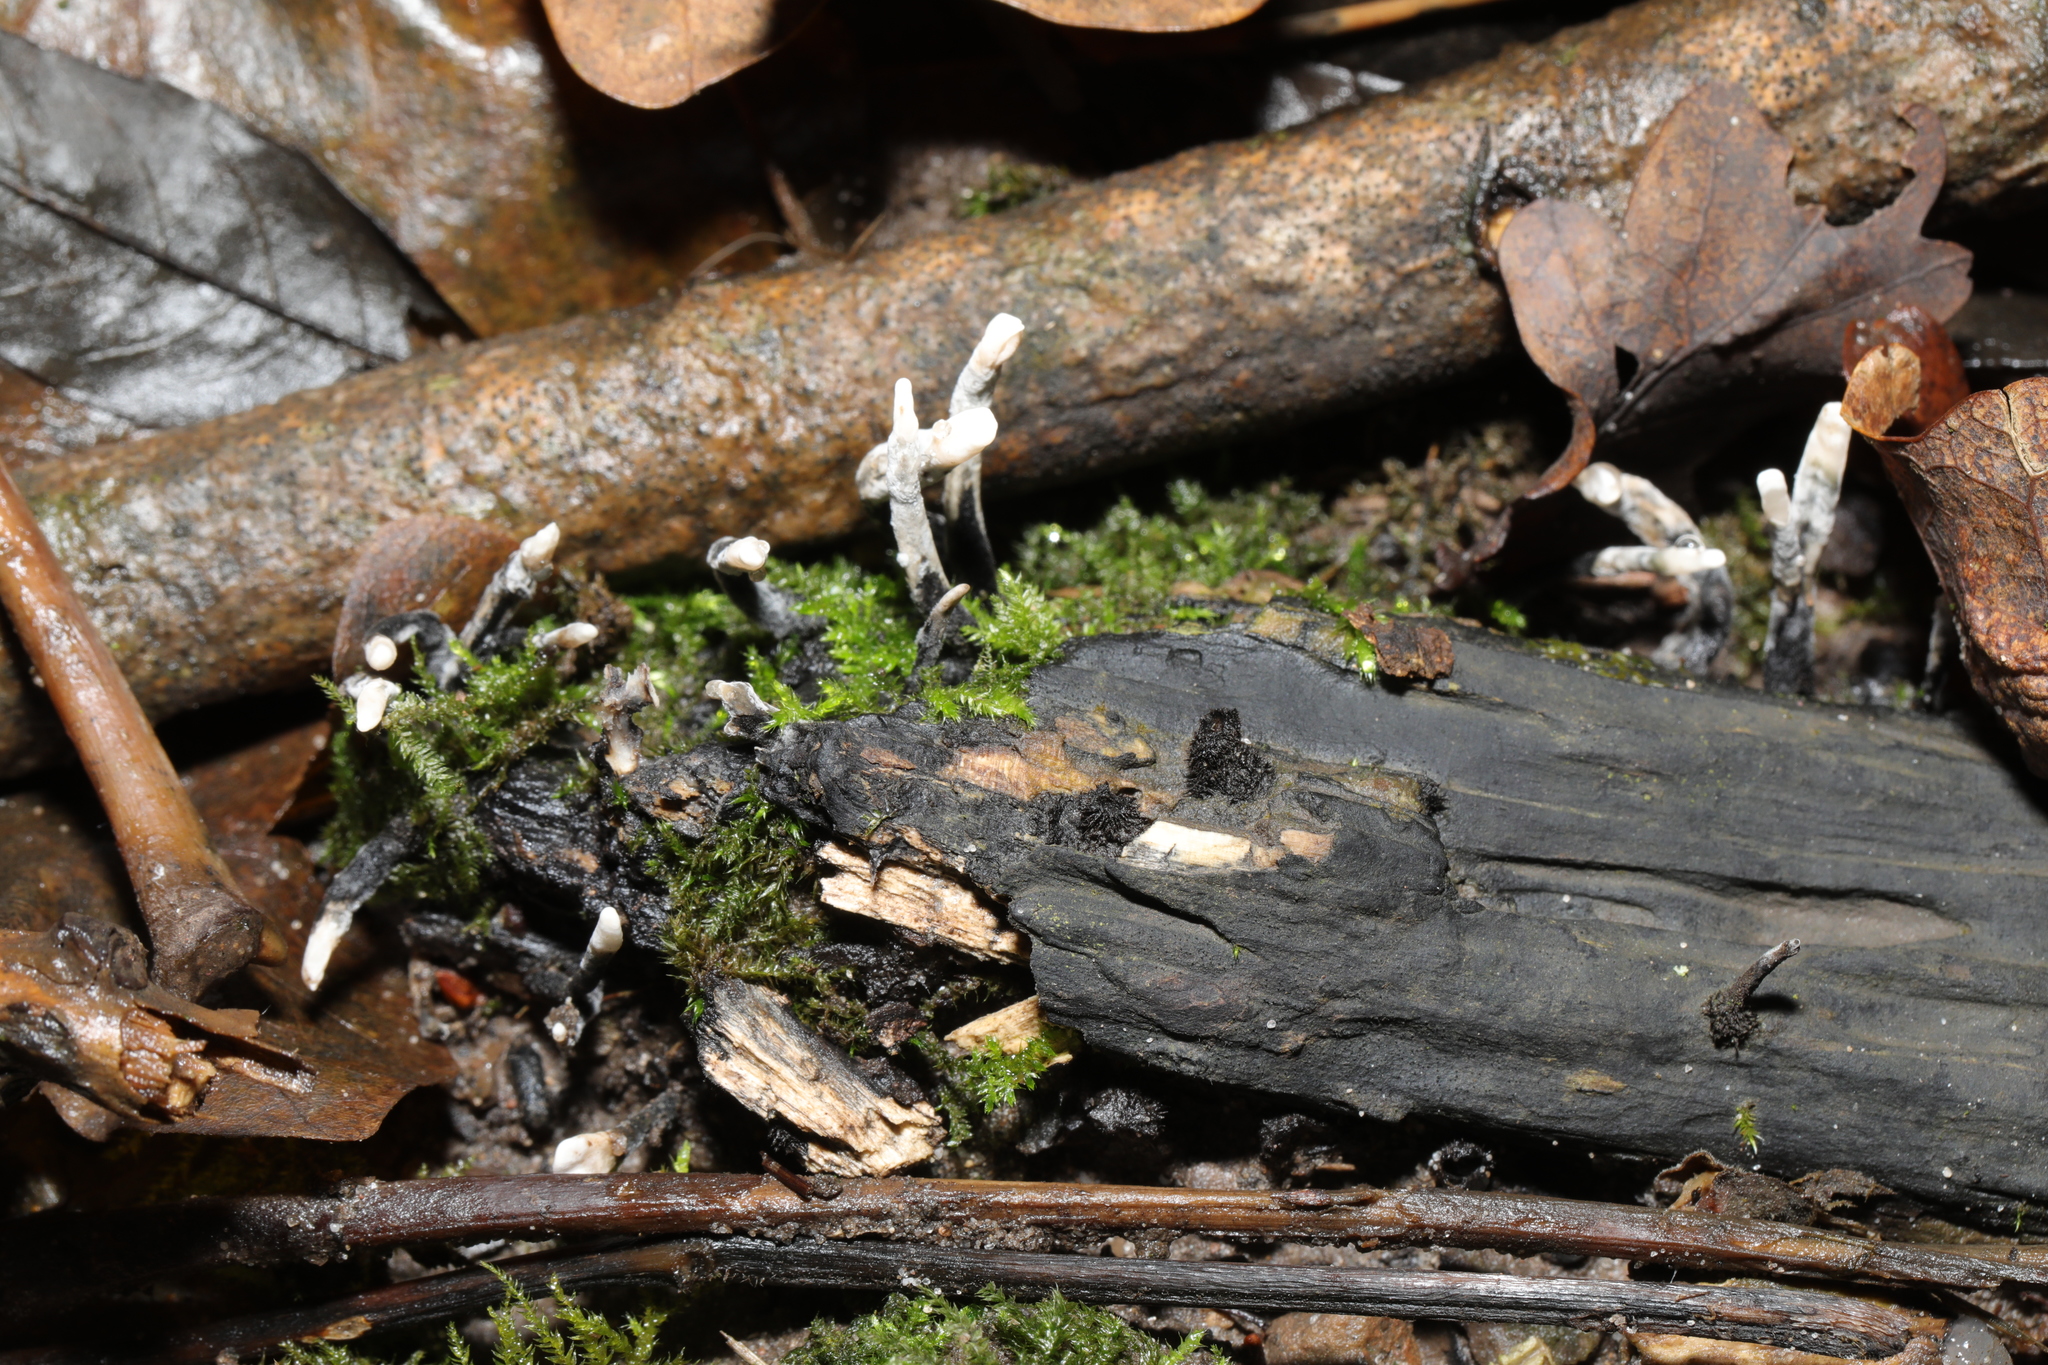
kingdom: Fungi
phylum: Ascomycota
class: Sordariomycetes
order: Xylariales
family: Xylariaceae
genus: Xylaria
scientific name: Xylaria hypoxylon
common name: Candle-snuff fungus
